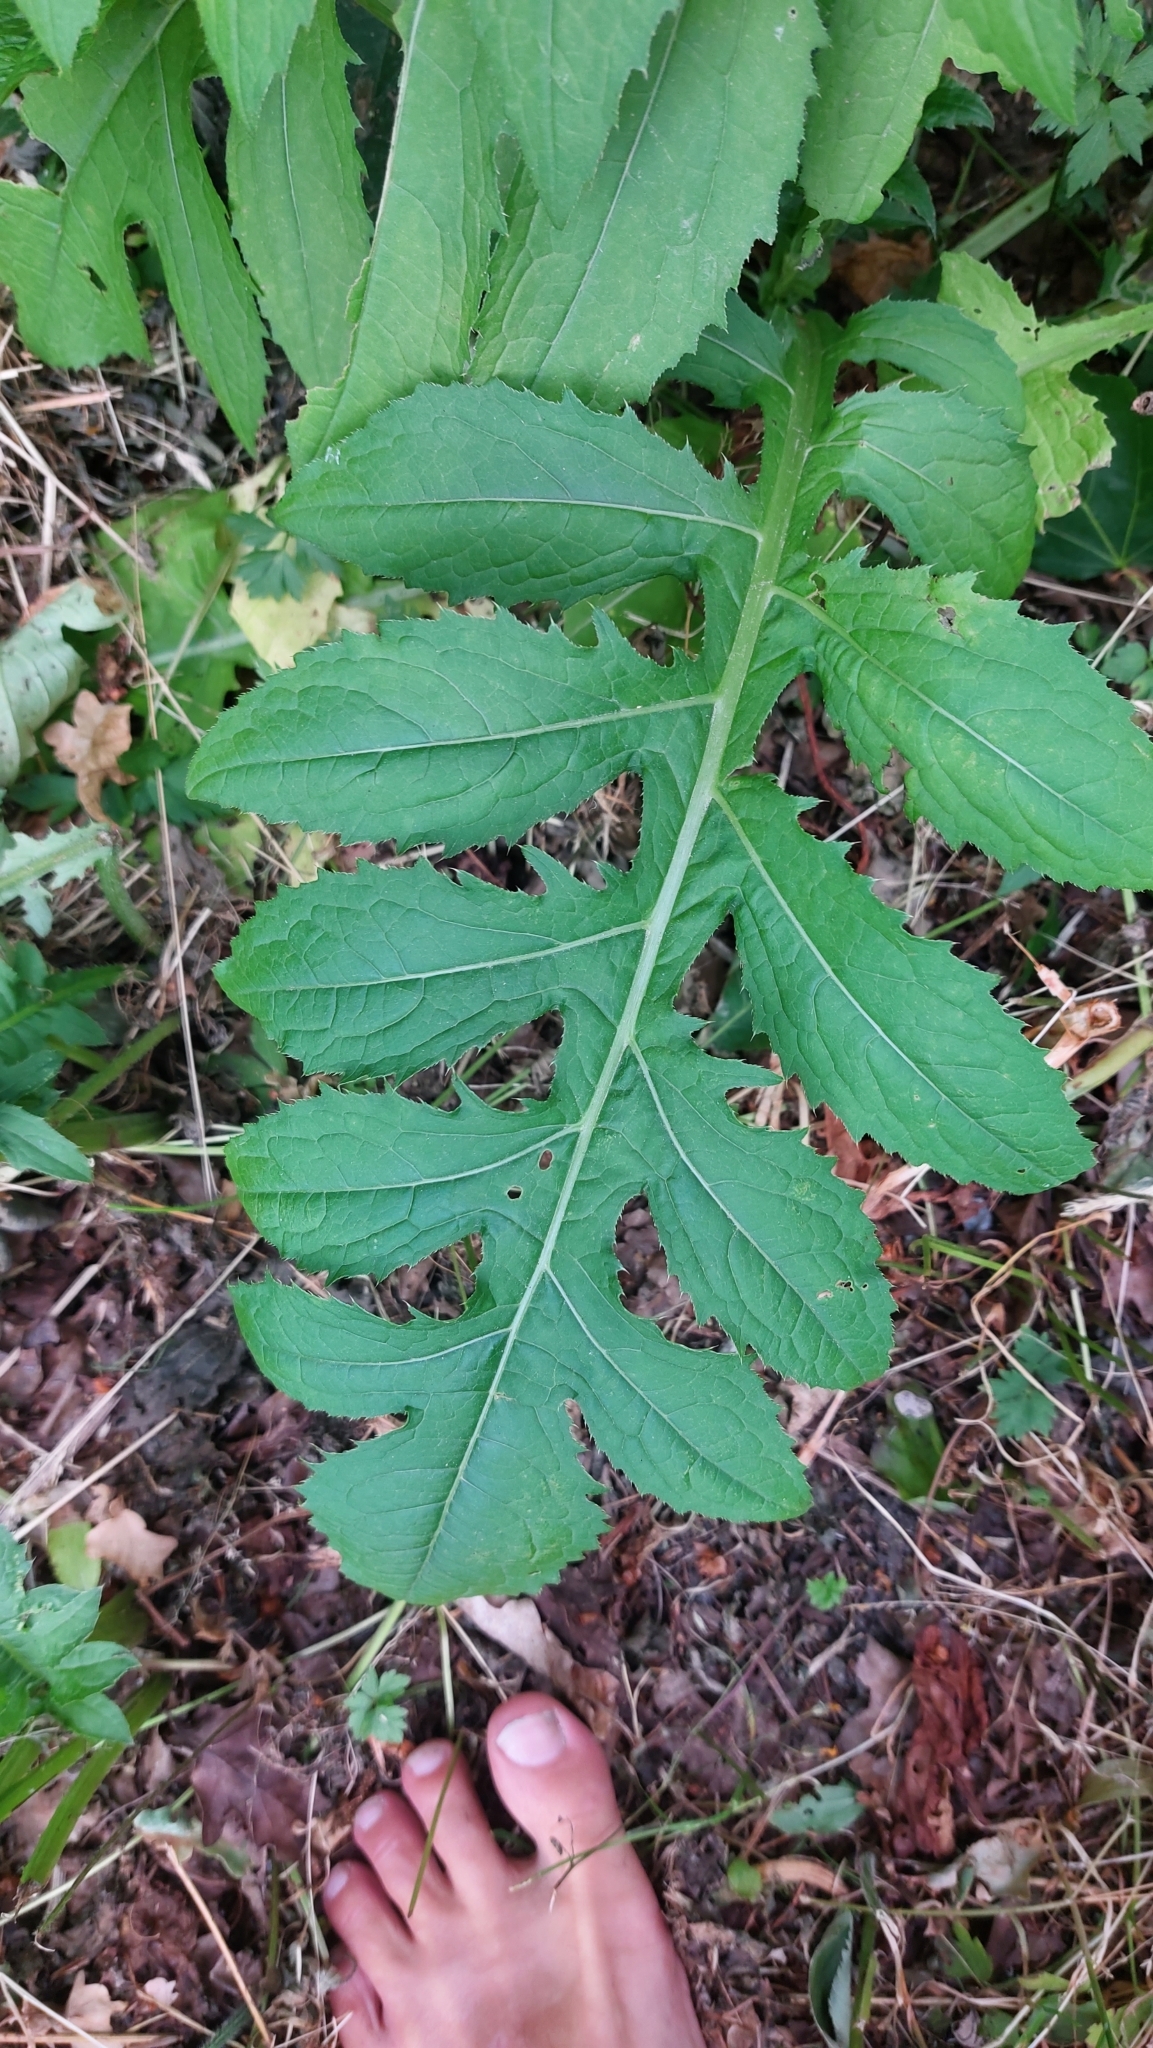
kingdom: Plantae
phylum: Tracheophyta
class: Magnoliopsida
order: Asterales
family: Asteraceae
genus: Cirsium
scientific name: Cirsium oleraceum
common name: Cabbage thistle
